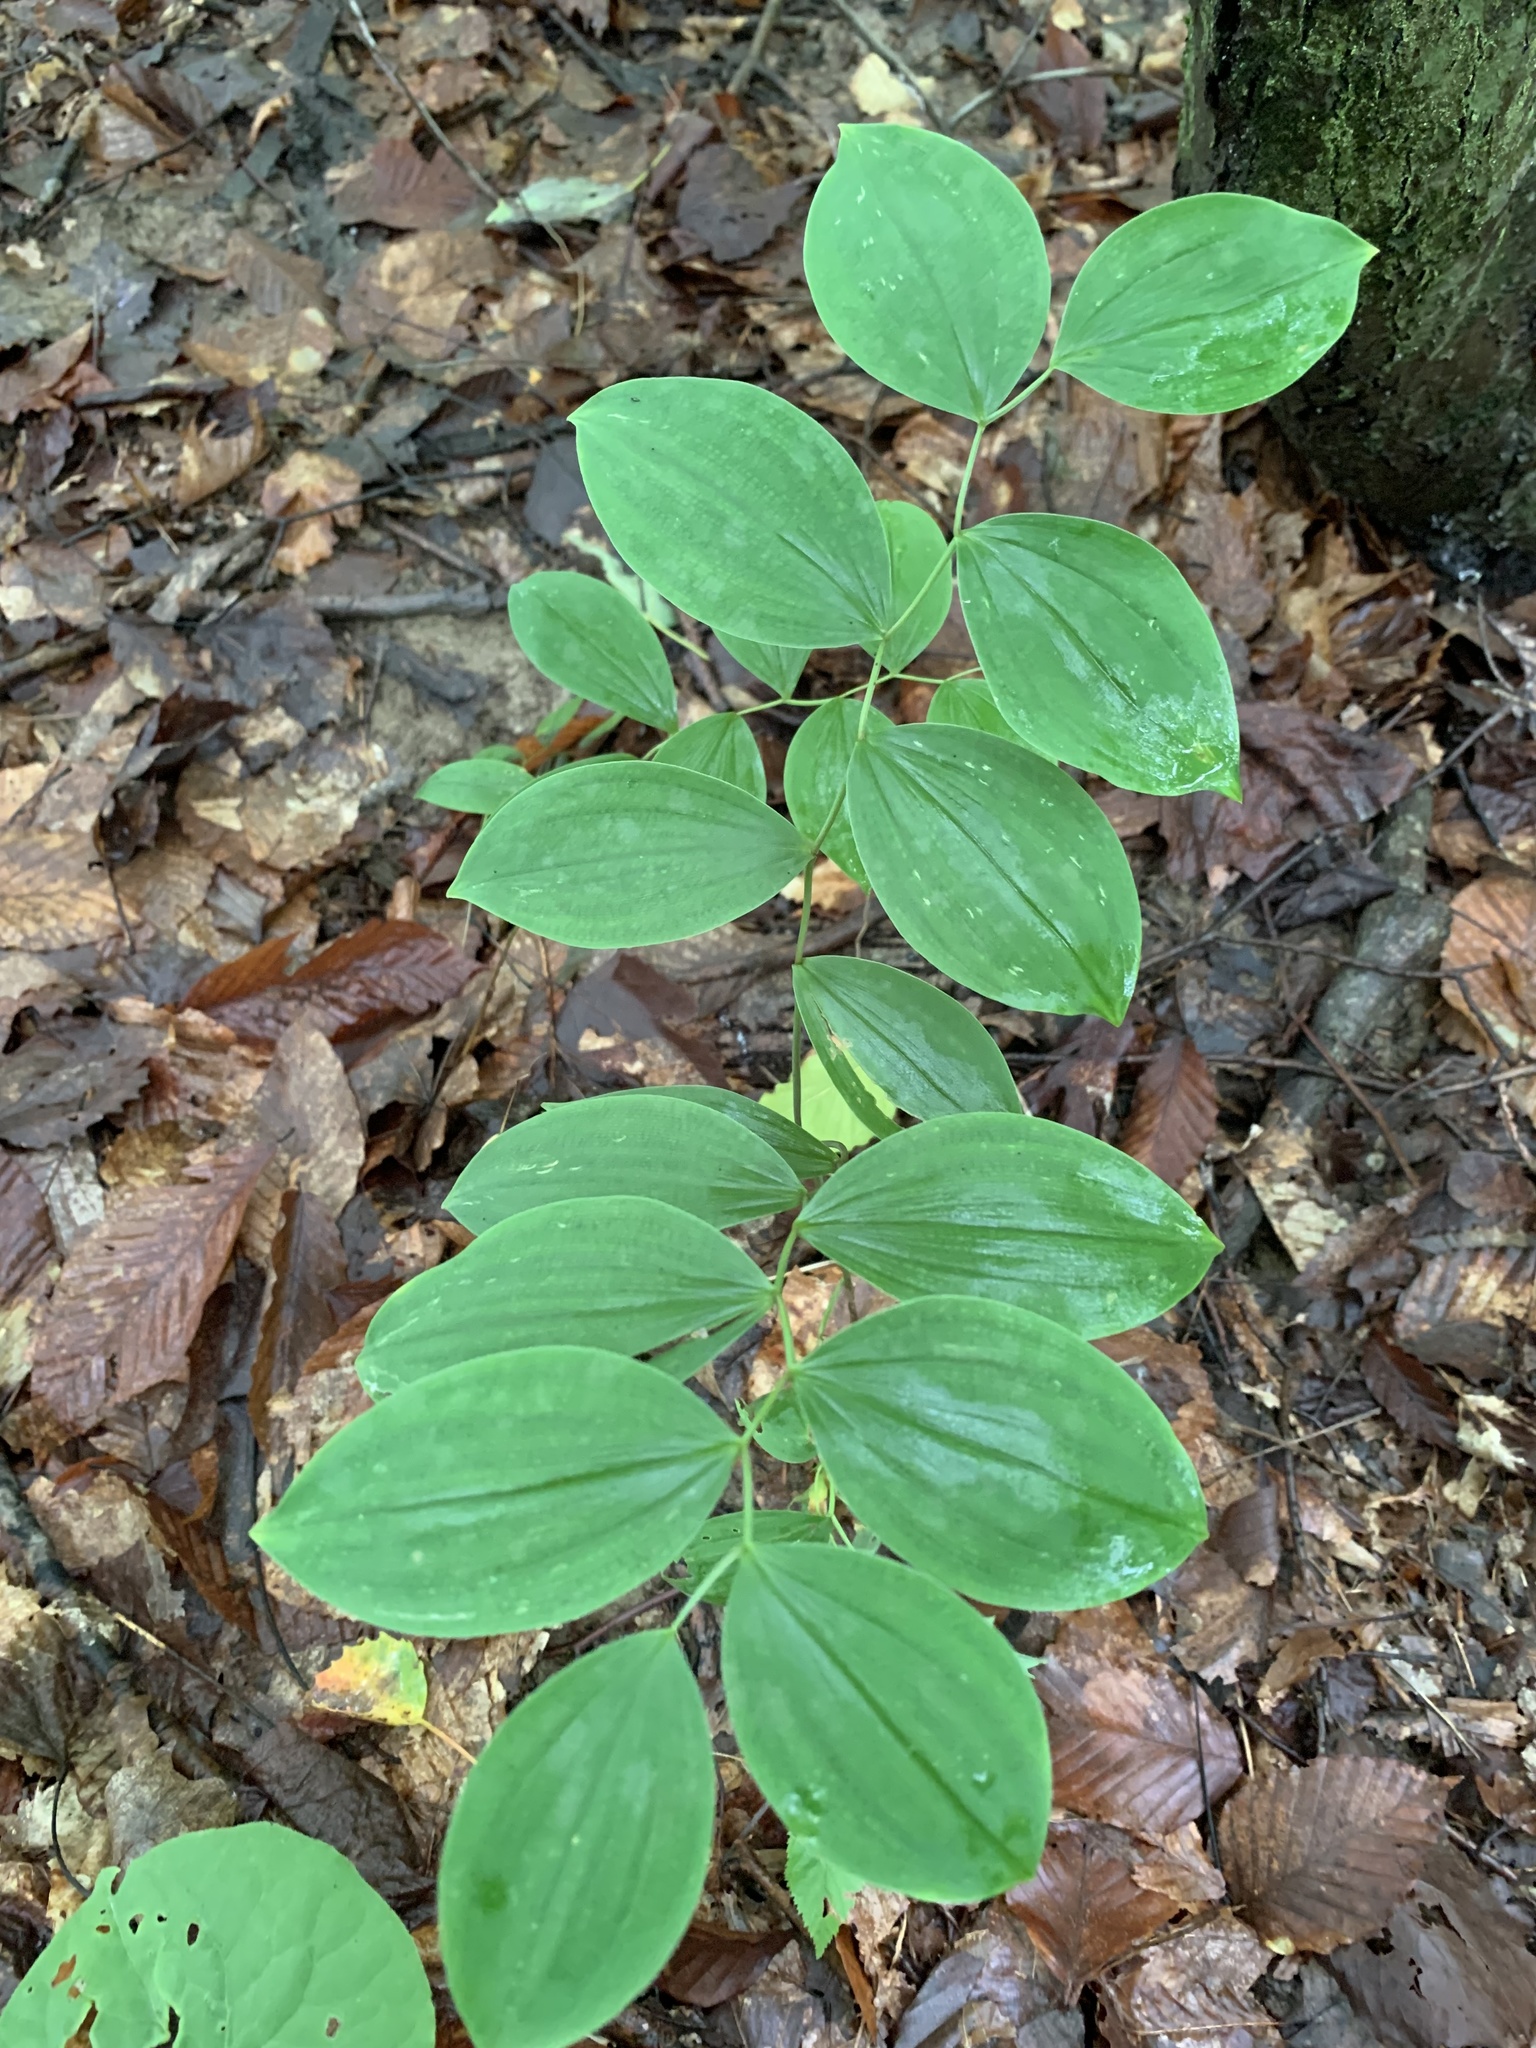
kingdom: Plantae
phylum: Tracheophyta
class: Liliopsida
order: Liliales
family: Colchicaceae
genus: Uvularia
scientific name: Uvularia sessilifolia
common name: Straw-lily
